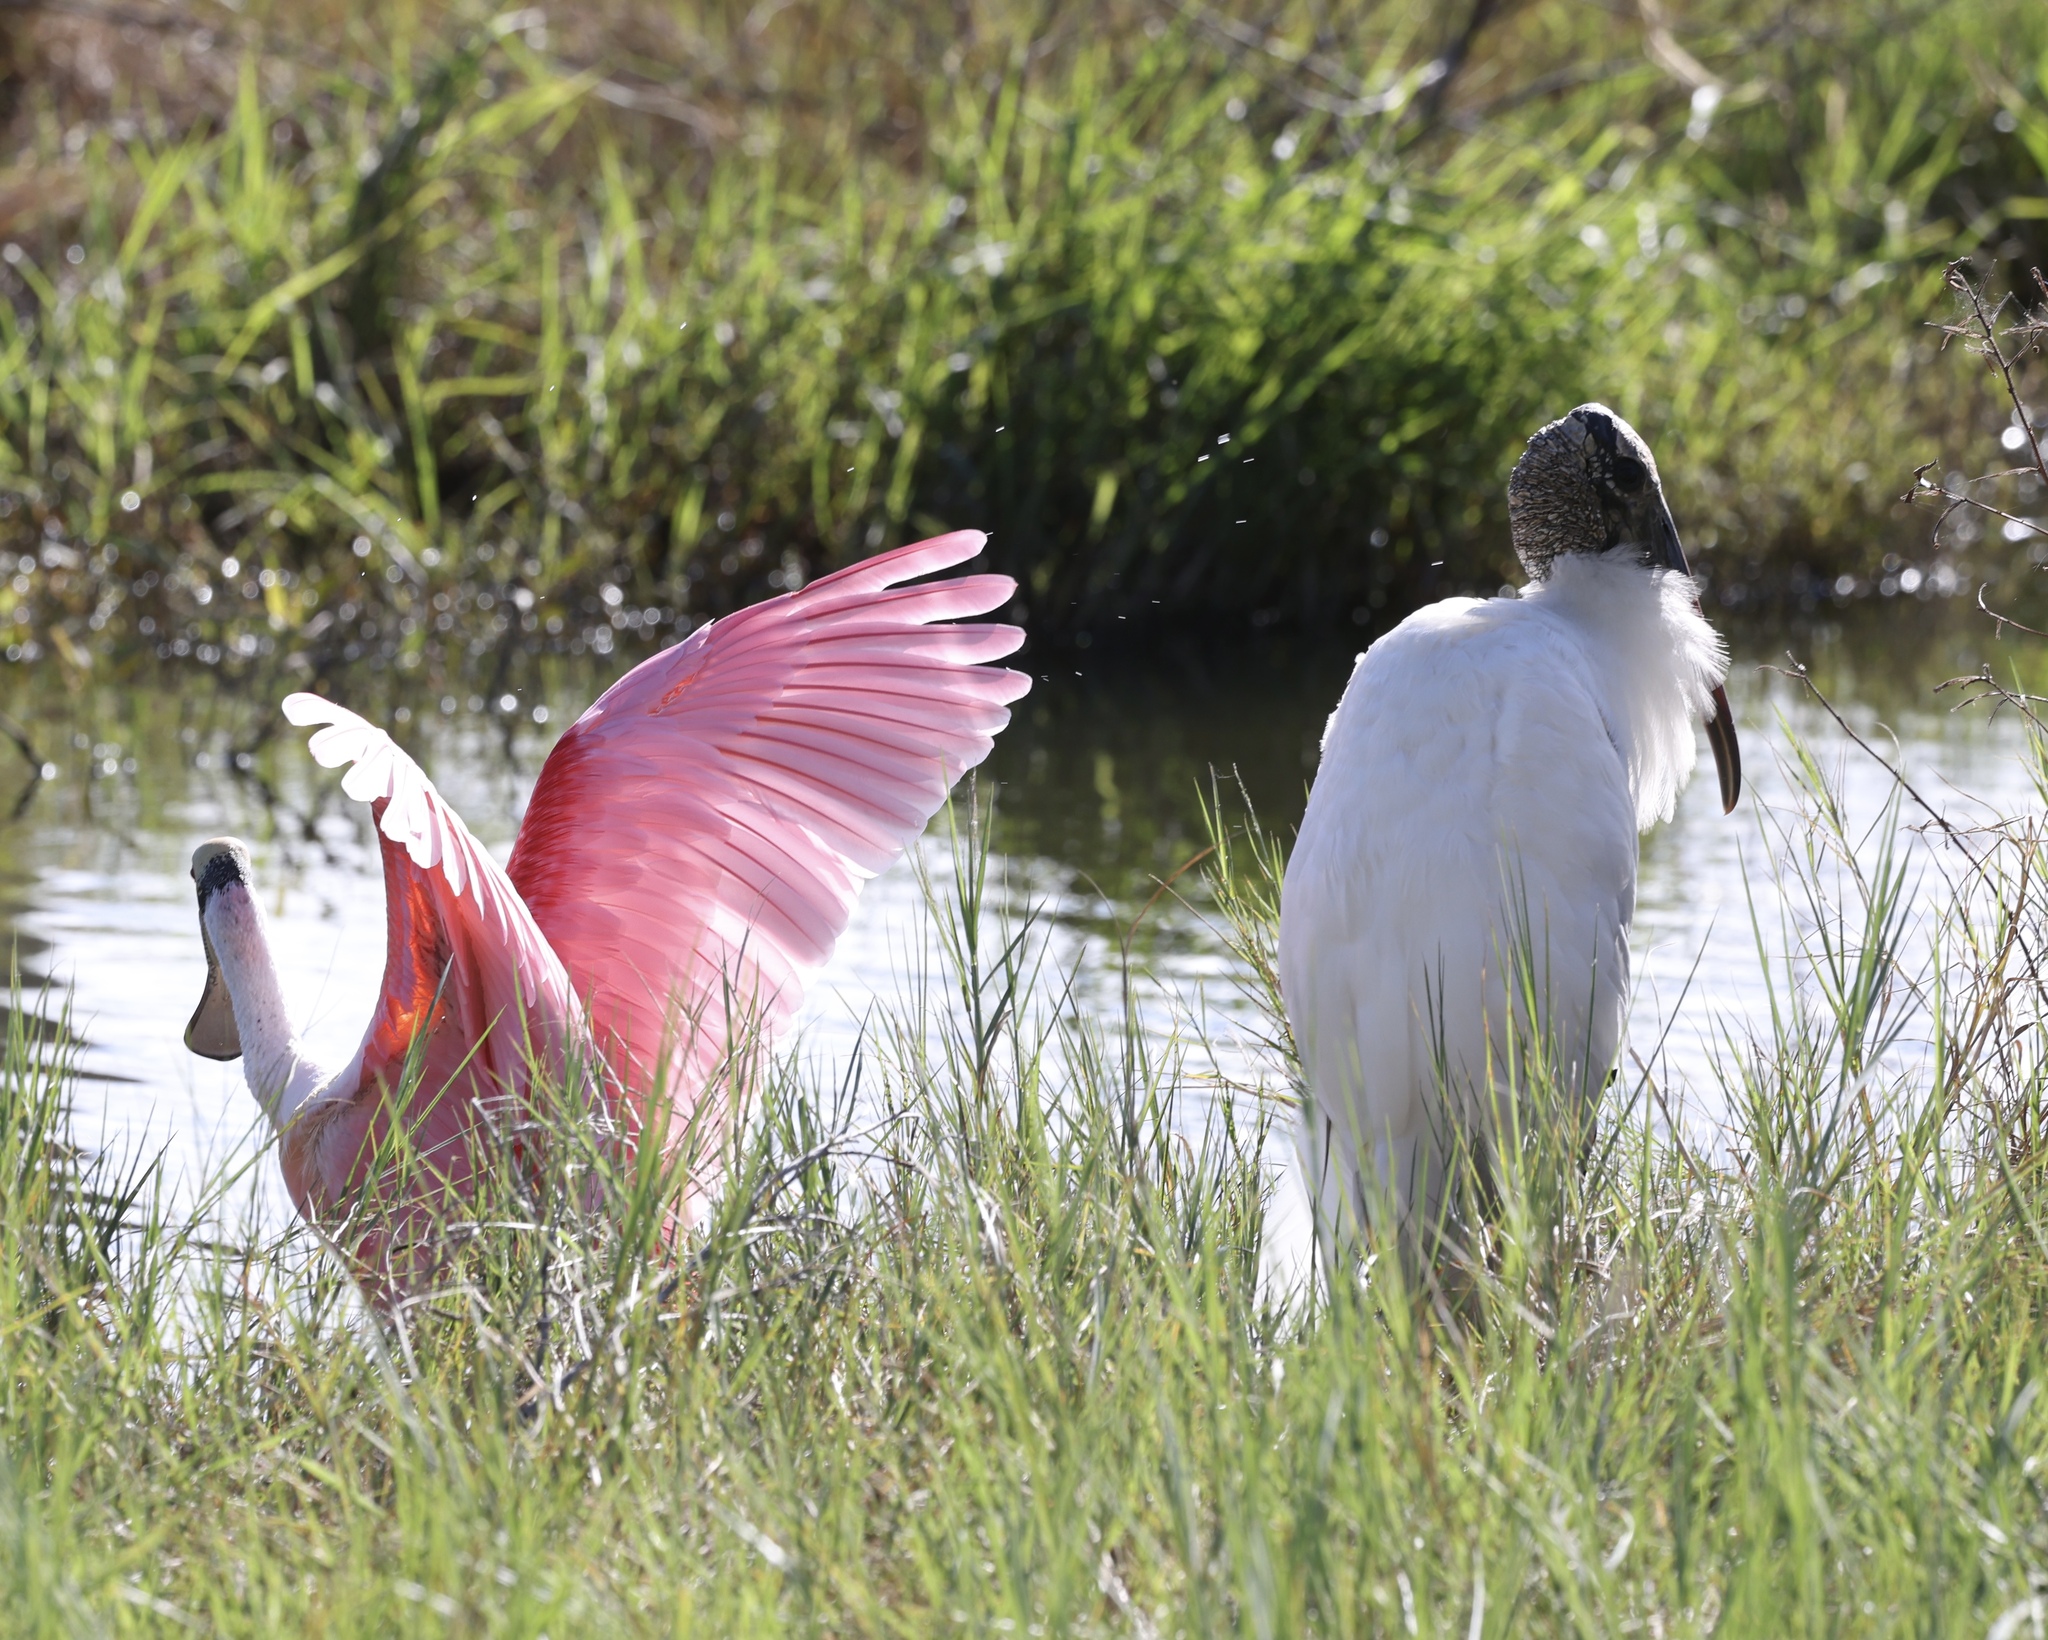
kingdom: Animalia
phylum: Chordata
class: Aves
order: Ciconiiformes
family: Ciconiidae
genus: Mycteria
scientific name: Mycteria americana
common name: Wood stork
